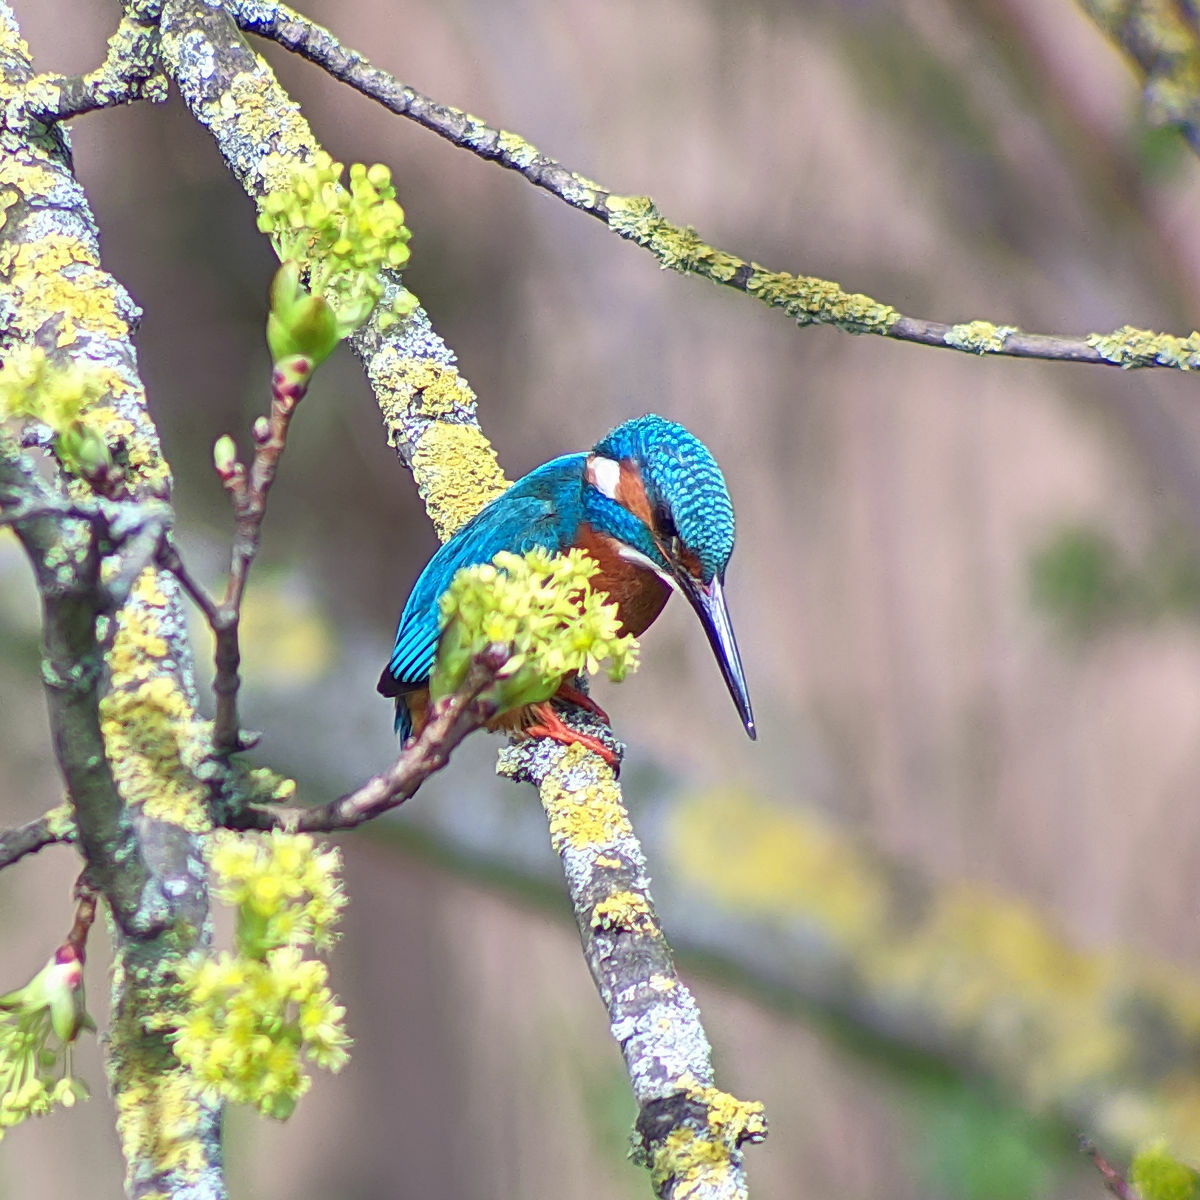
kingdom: Animalia
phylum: Chordata
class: Aves
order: Coraciiformes
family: Alcedinidae
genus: Alcedo
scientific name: Alcedo atthis
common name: Common kingfisher
